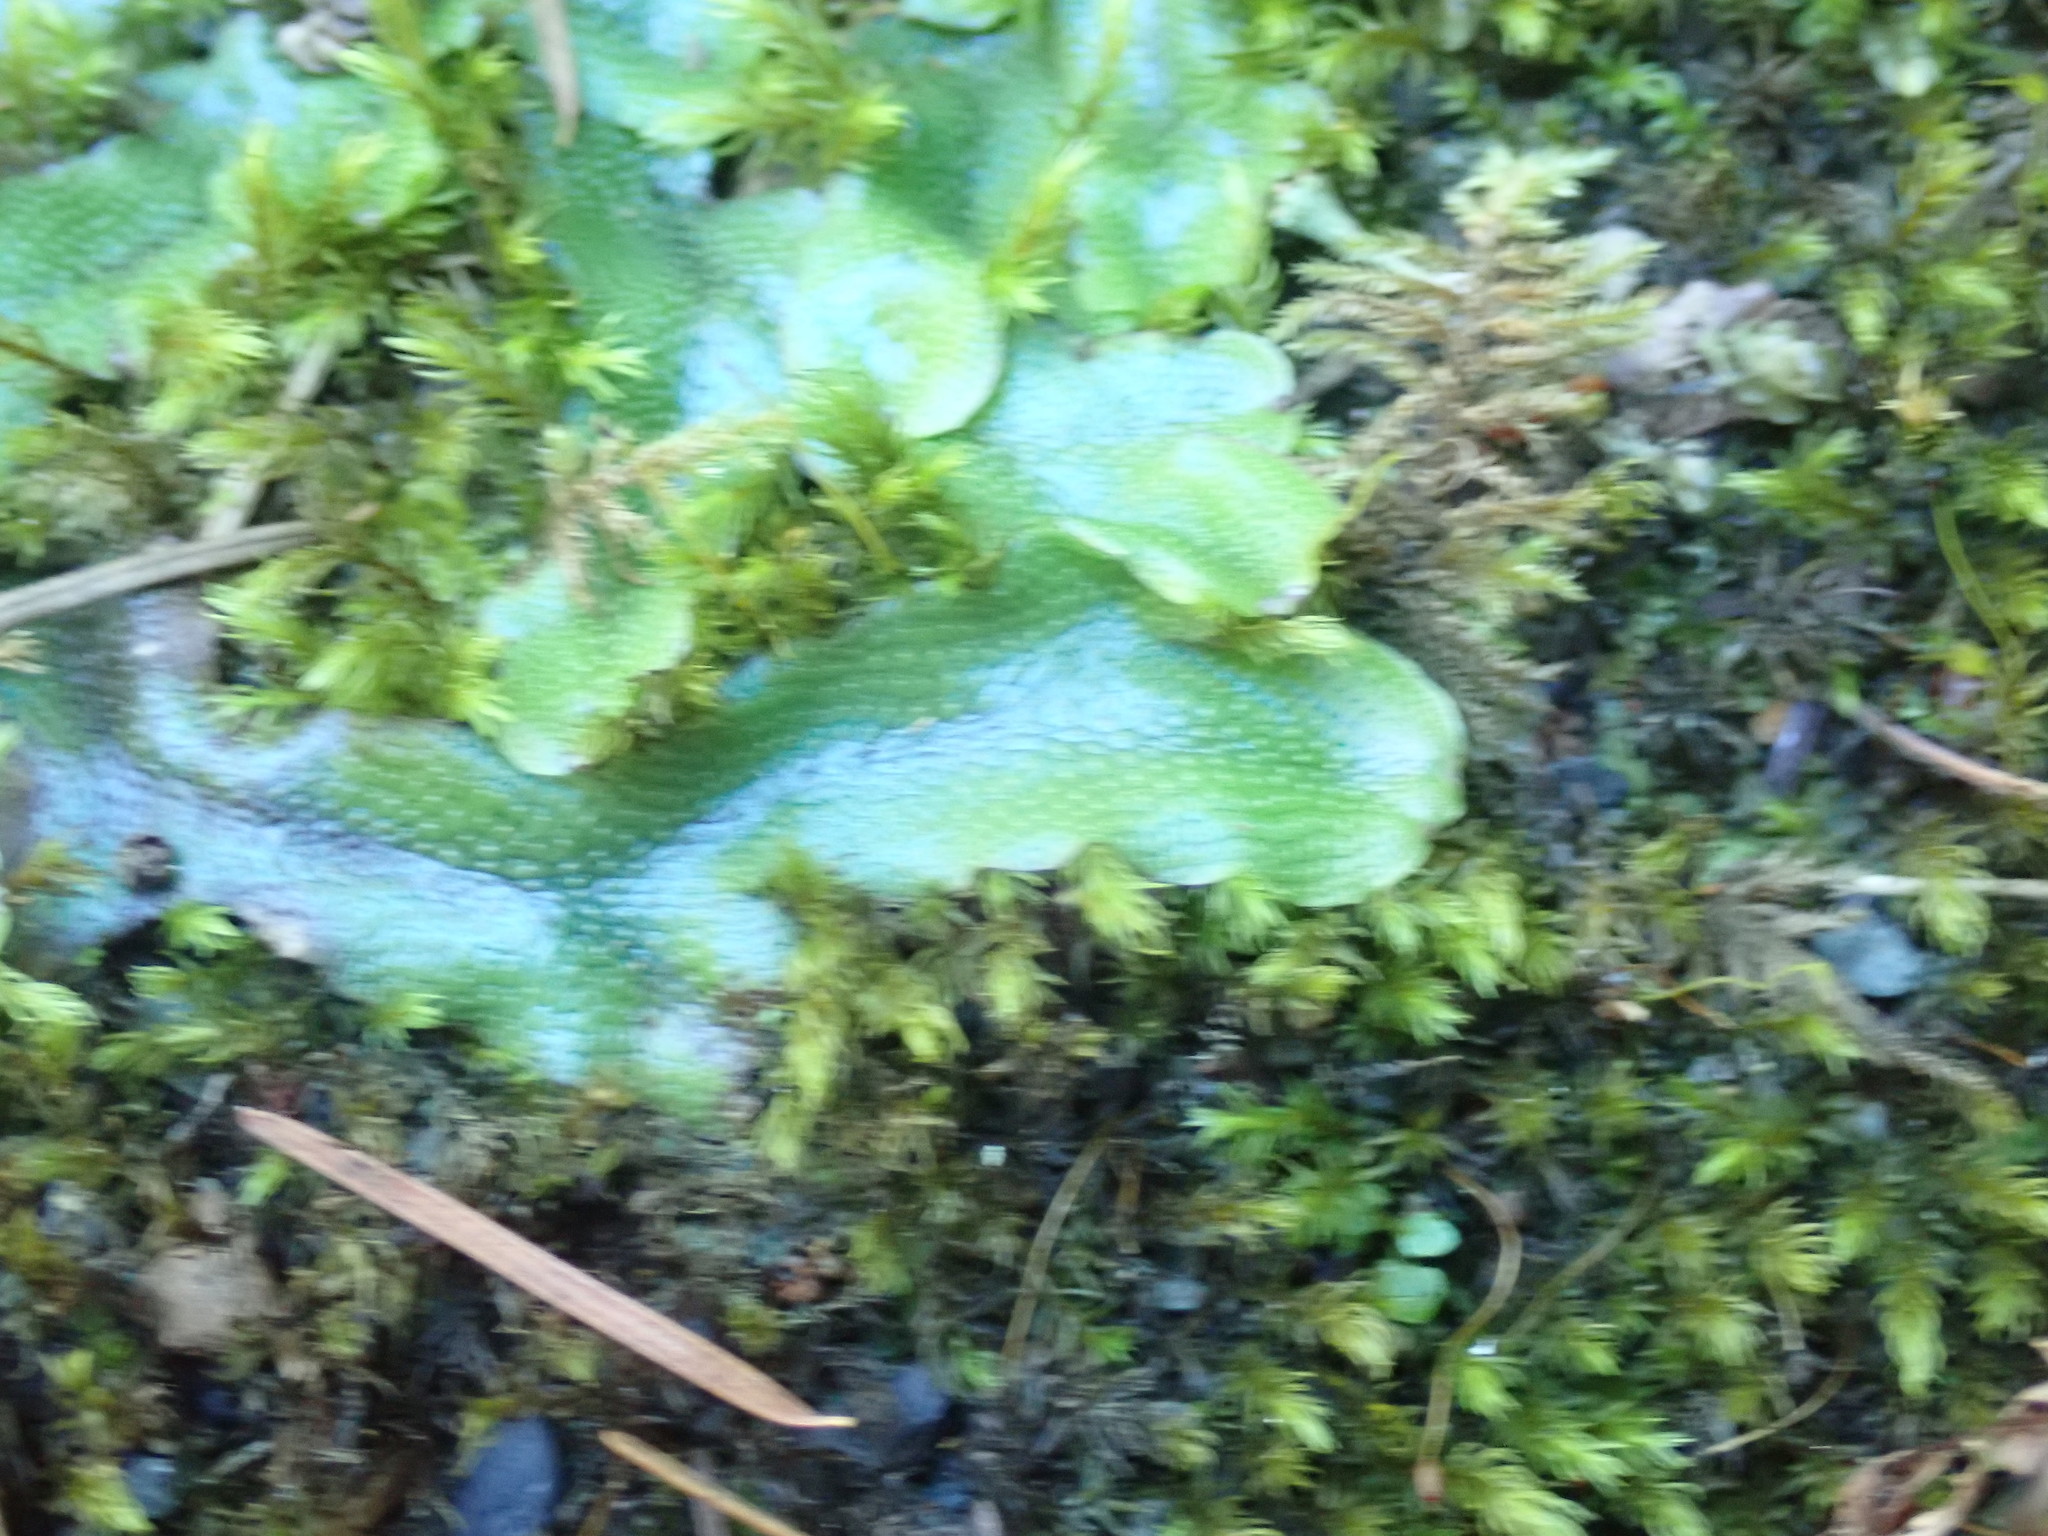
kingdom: Plantae
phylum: Marchantiophyta
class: Marchantiopsida
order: Marchantiales
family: Conocephalaceae
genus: Conocephalum
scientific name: Conocephalum salebrosum
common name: Cat-tongue liverwort
